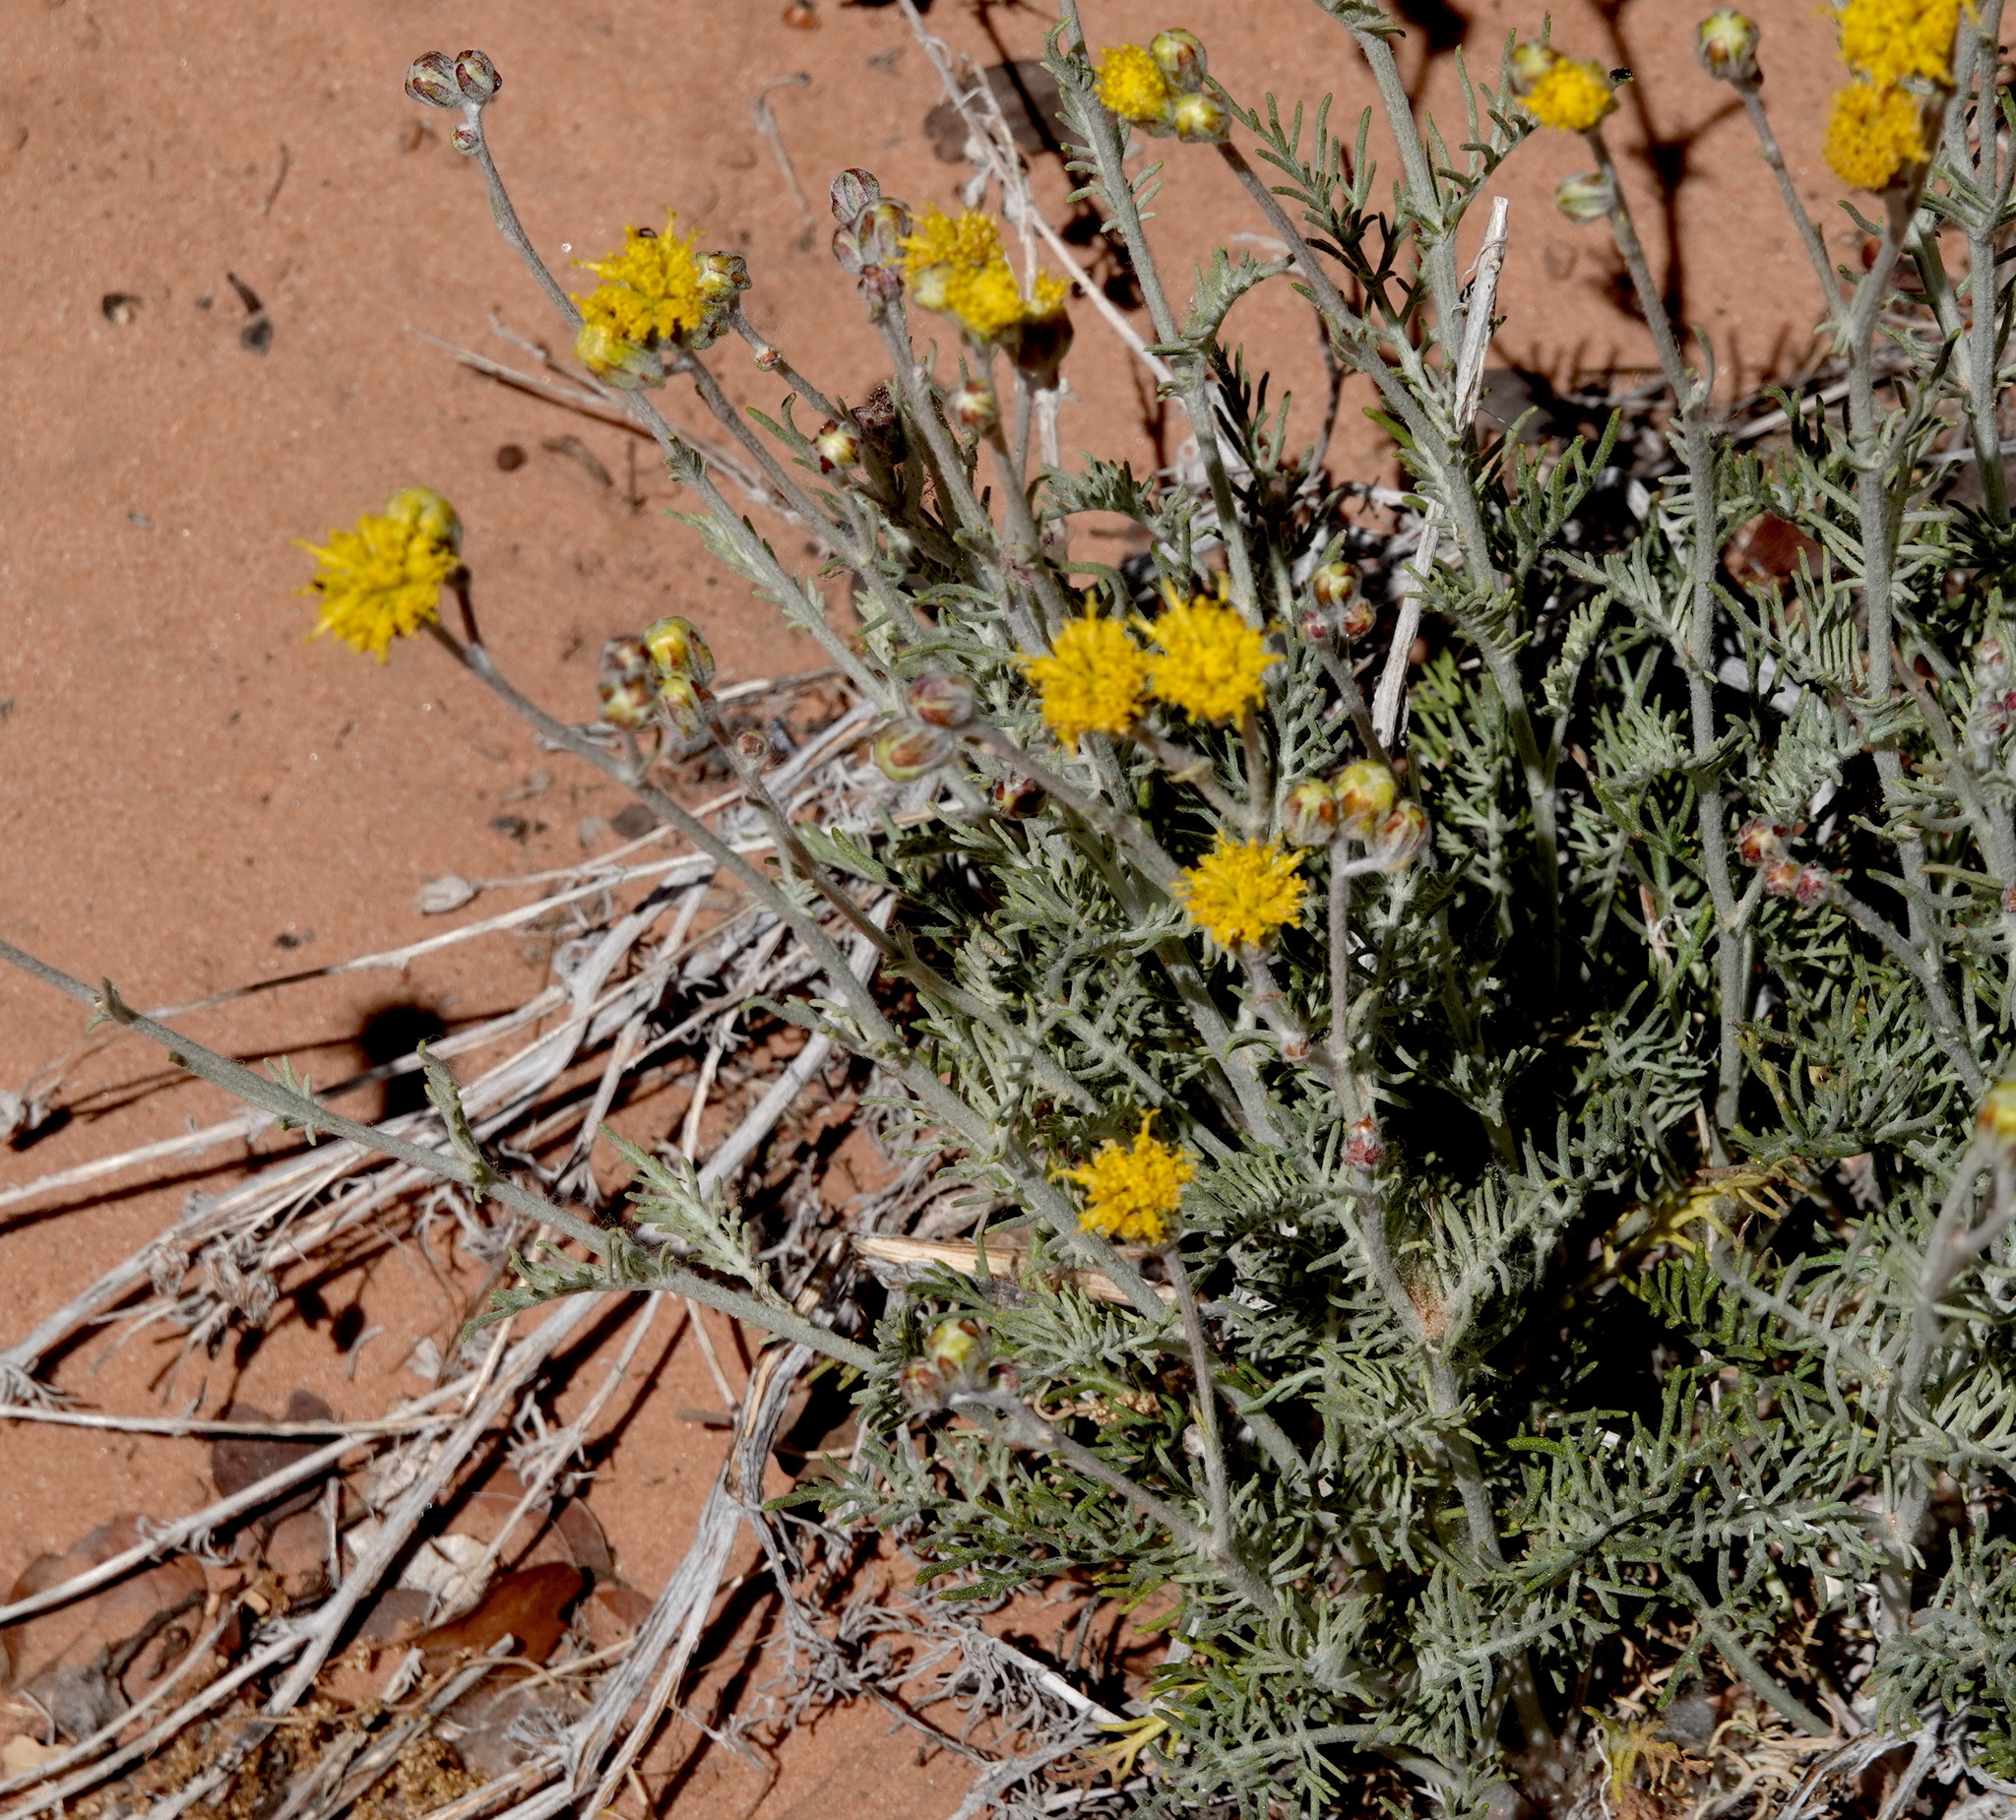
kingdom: Plantae
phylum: Tracheophyta
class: Magnoliopsida
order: Asterales
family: Asteraceae
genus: Hymenopappus
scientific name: Hymenopappus filifolius
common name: Columbia cutleaf
